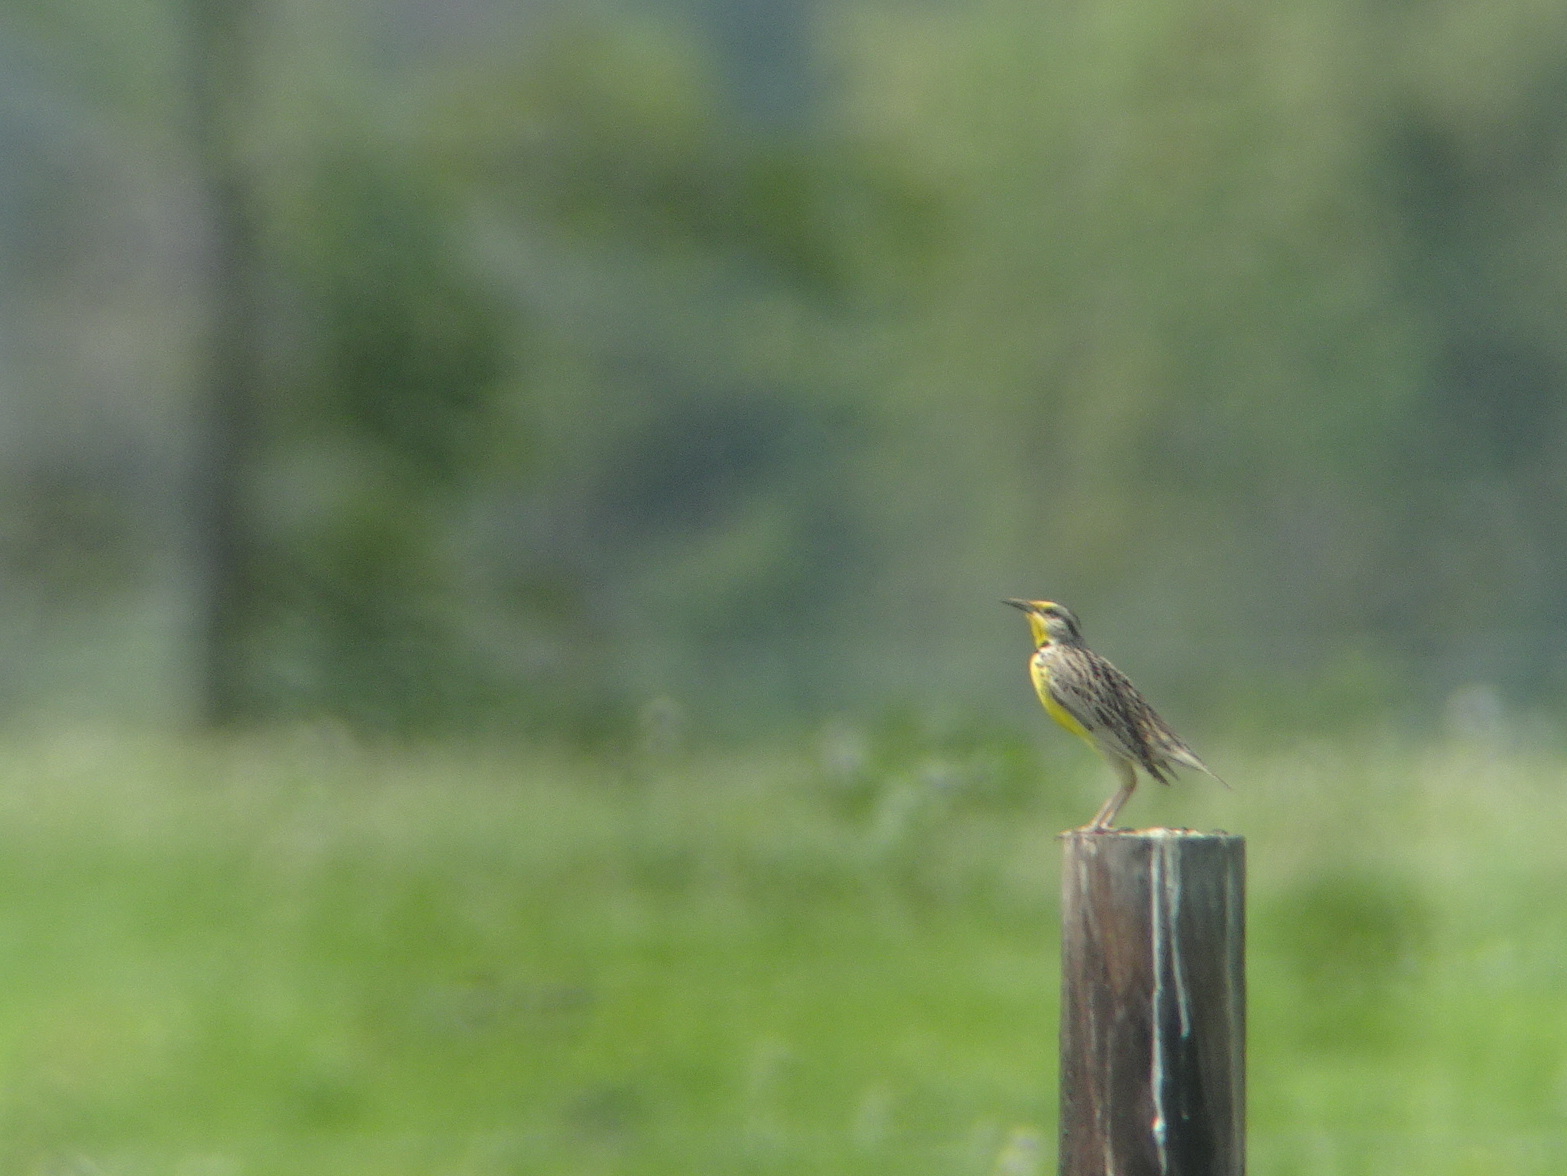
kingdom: Animalia
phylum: Chordata
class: Aves
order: Passeriformes
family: Icteridae
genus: Sturnella
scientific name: Sturnella neglecta
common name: Western meadowlark
